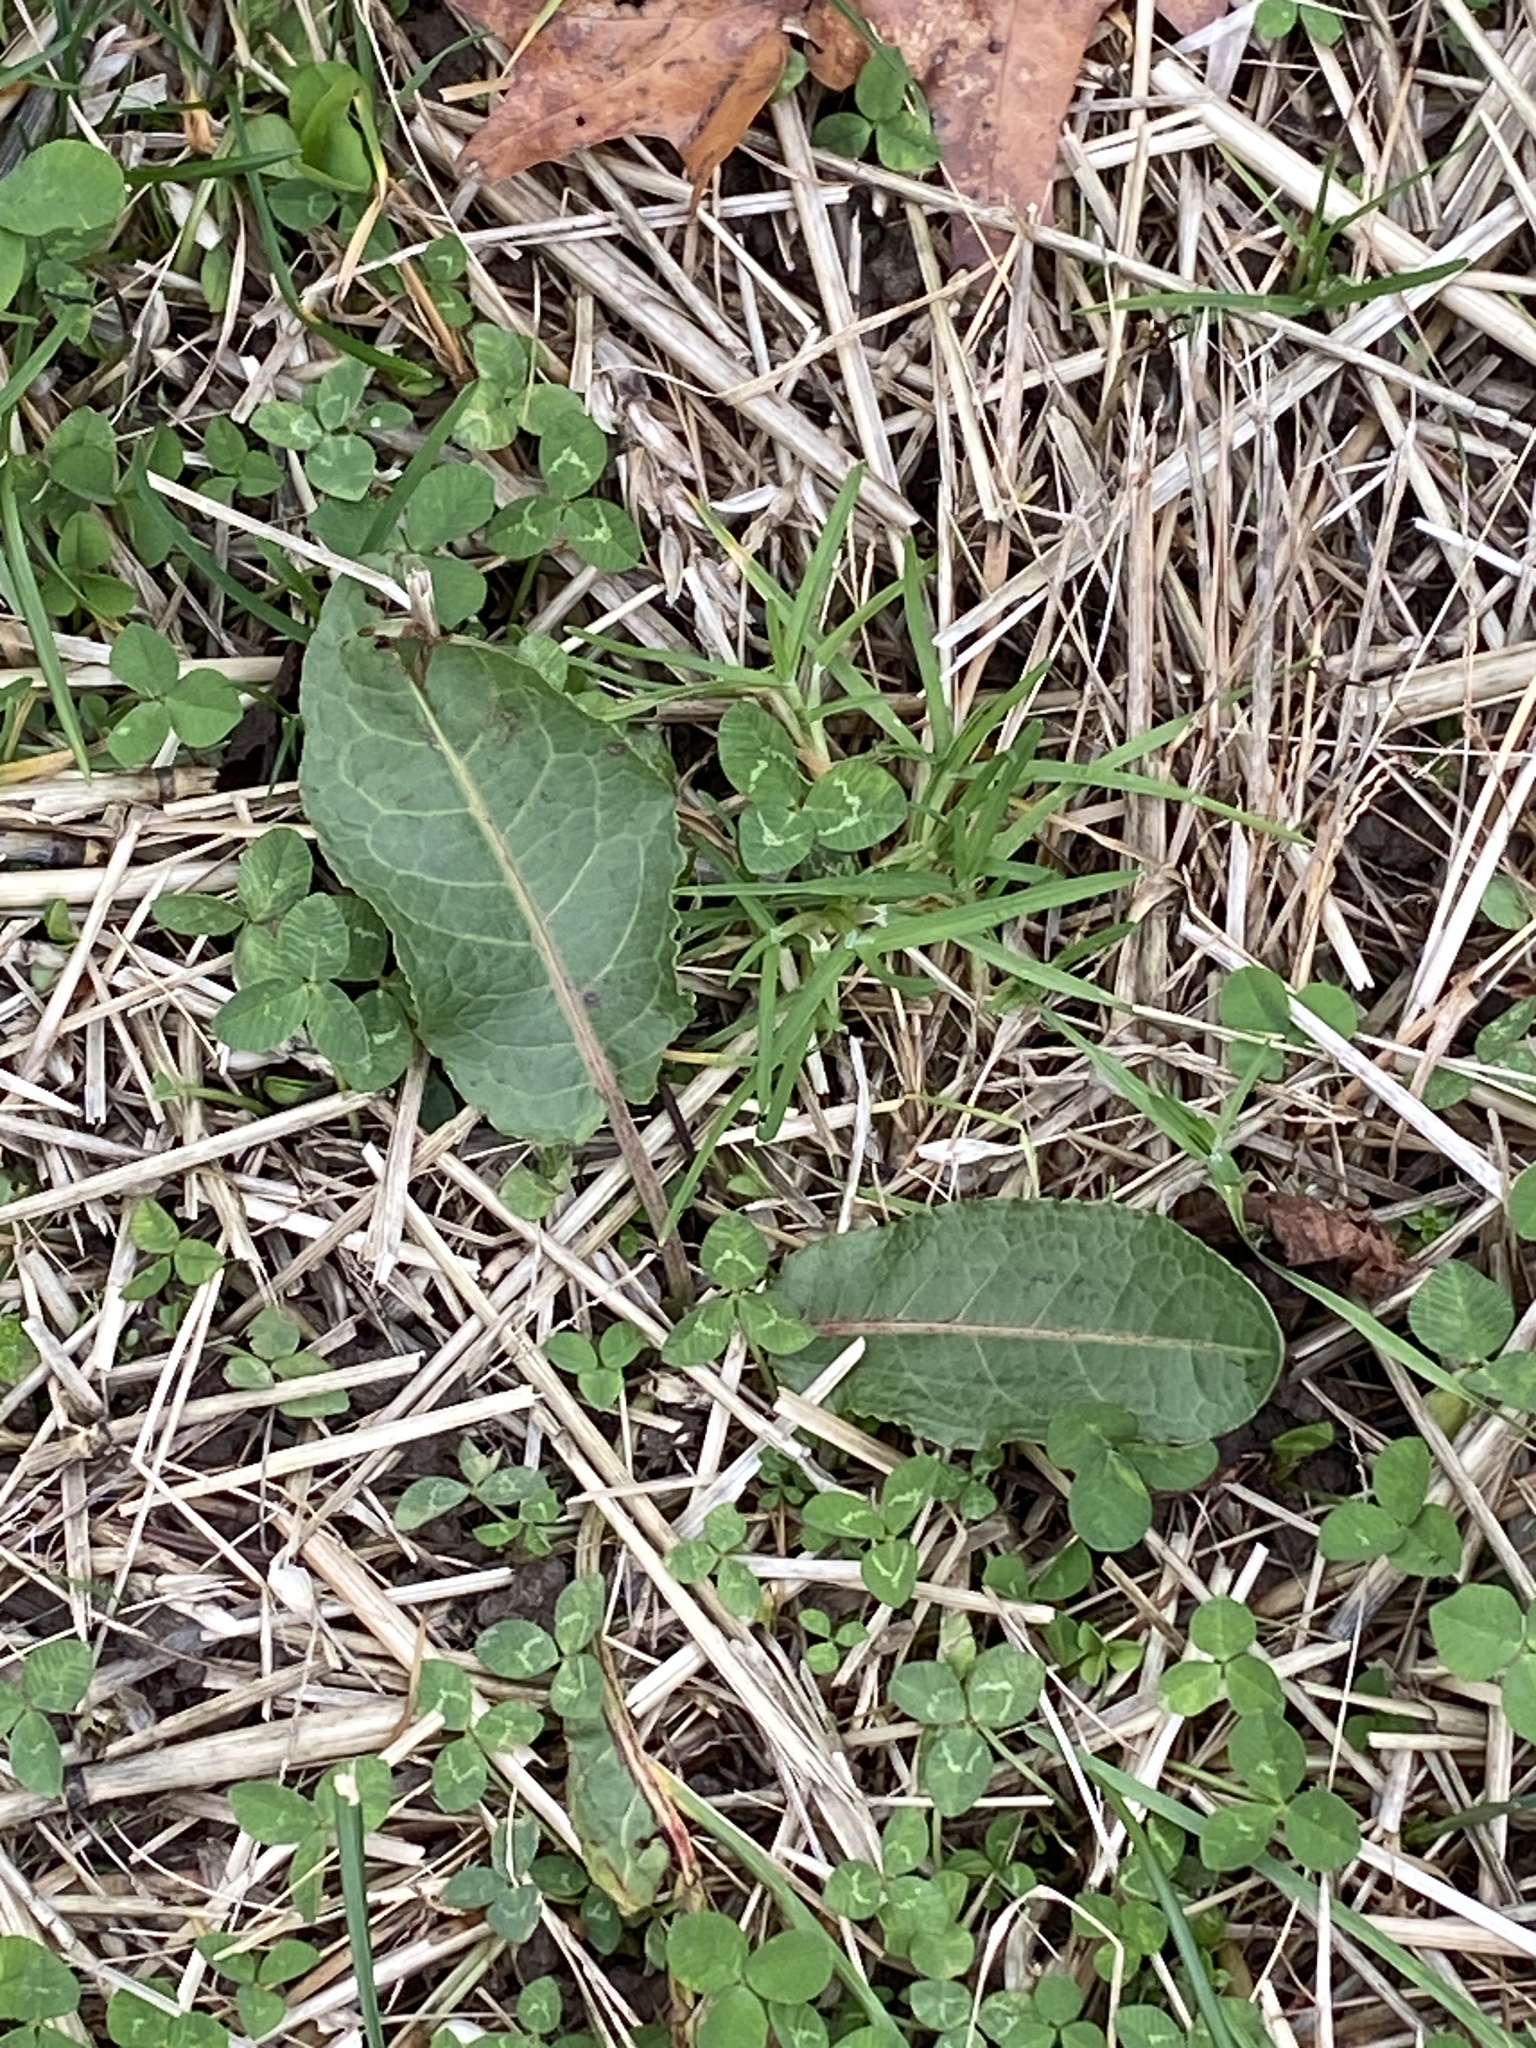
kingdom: Plantae
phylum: Tracheophyta
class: Magnoliopsida
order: Caryophyllales
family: Polygonaceae
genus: Rumex
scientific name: Rumex obtusifolius
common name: Bitter dock
